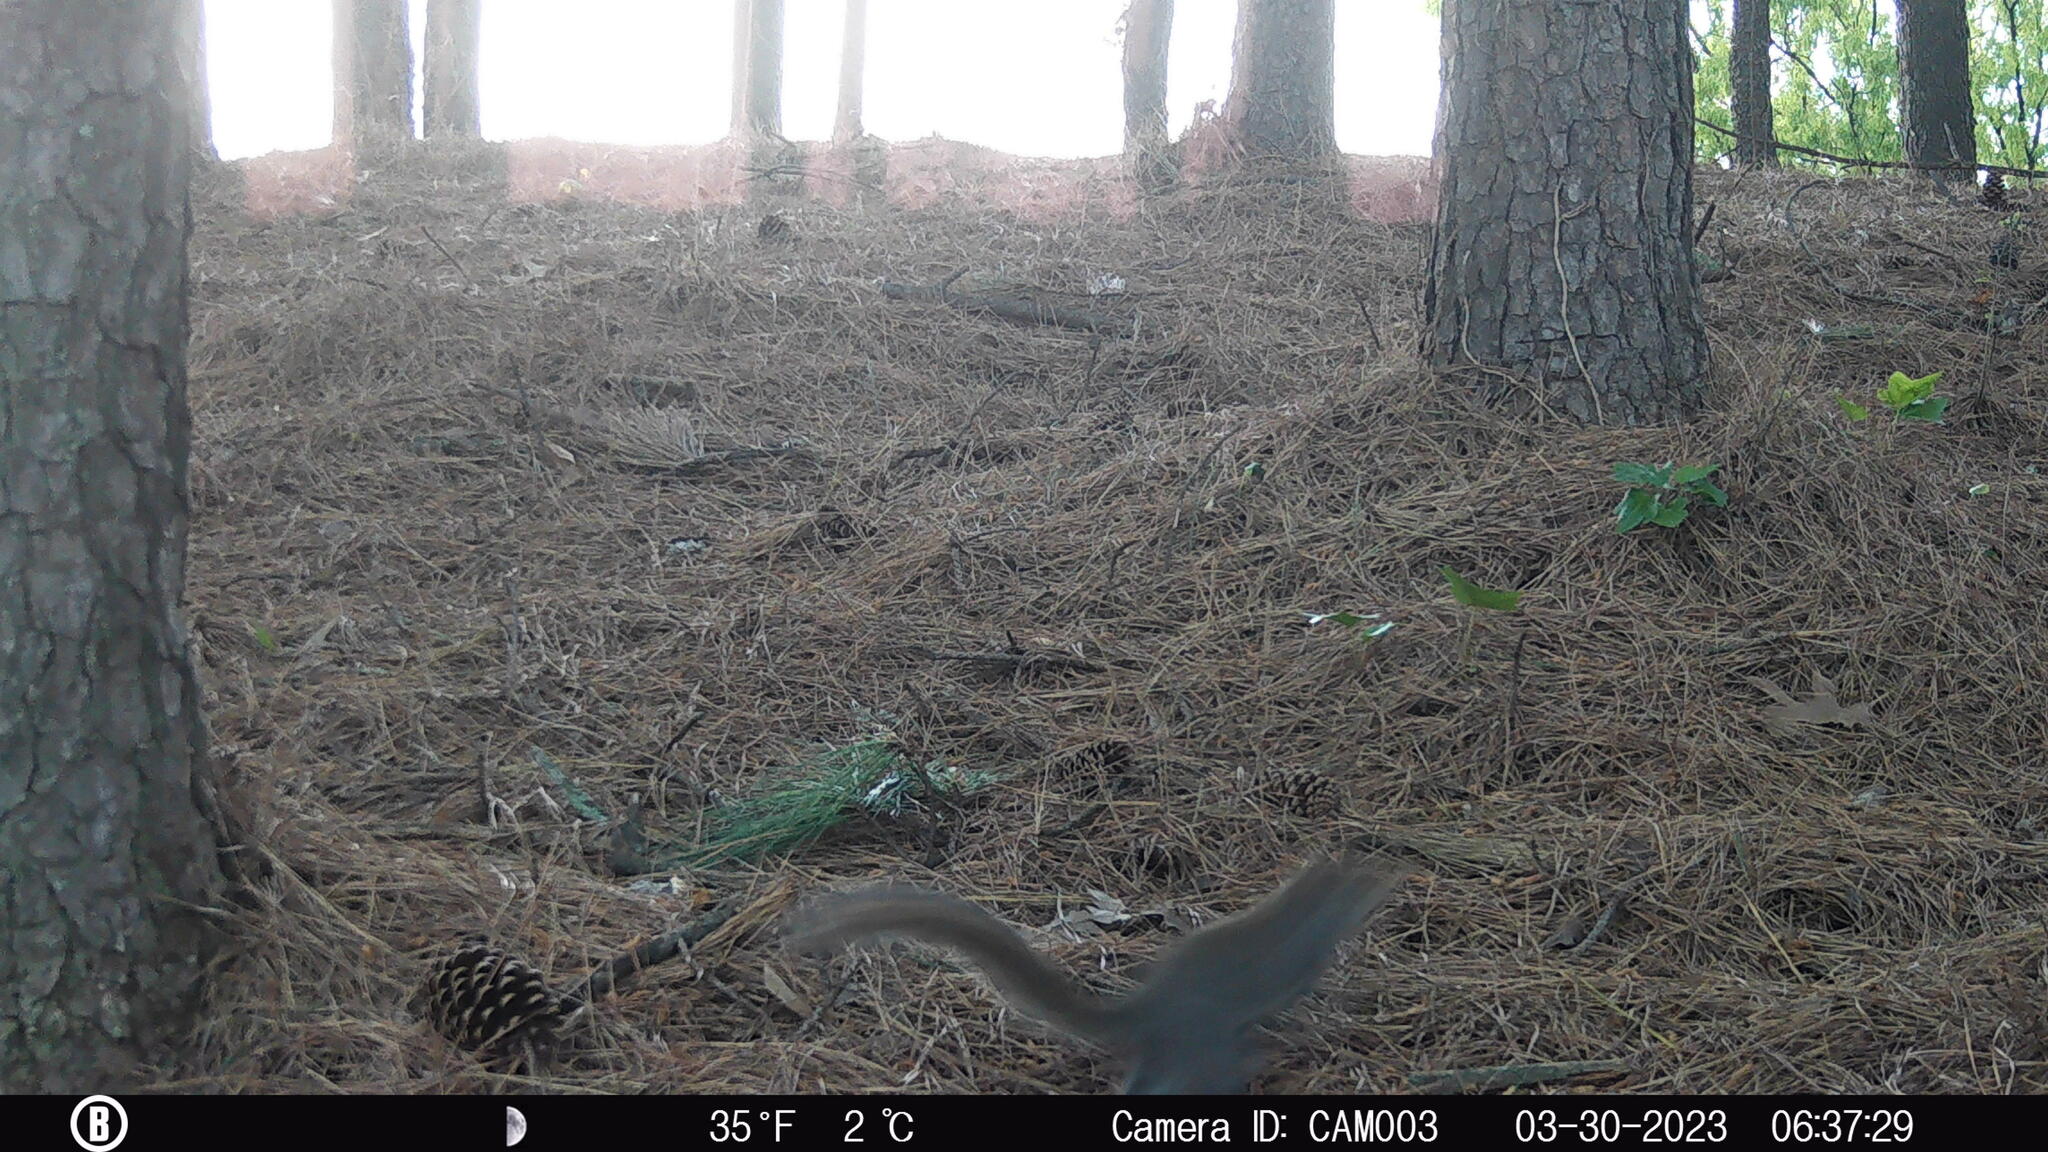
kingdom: Animalia
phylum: Chordata
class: Mammalia
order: Rodentia
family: Sciuridae
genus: Sciurus
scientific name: Sciurus carolinensis
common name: Eastern gray squirrel
